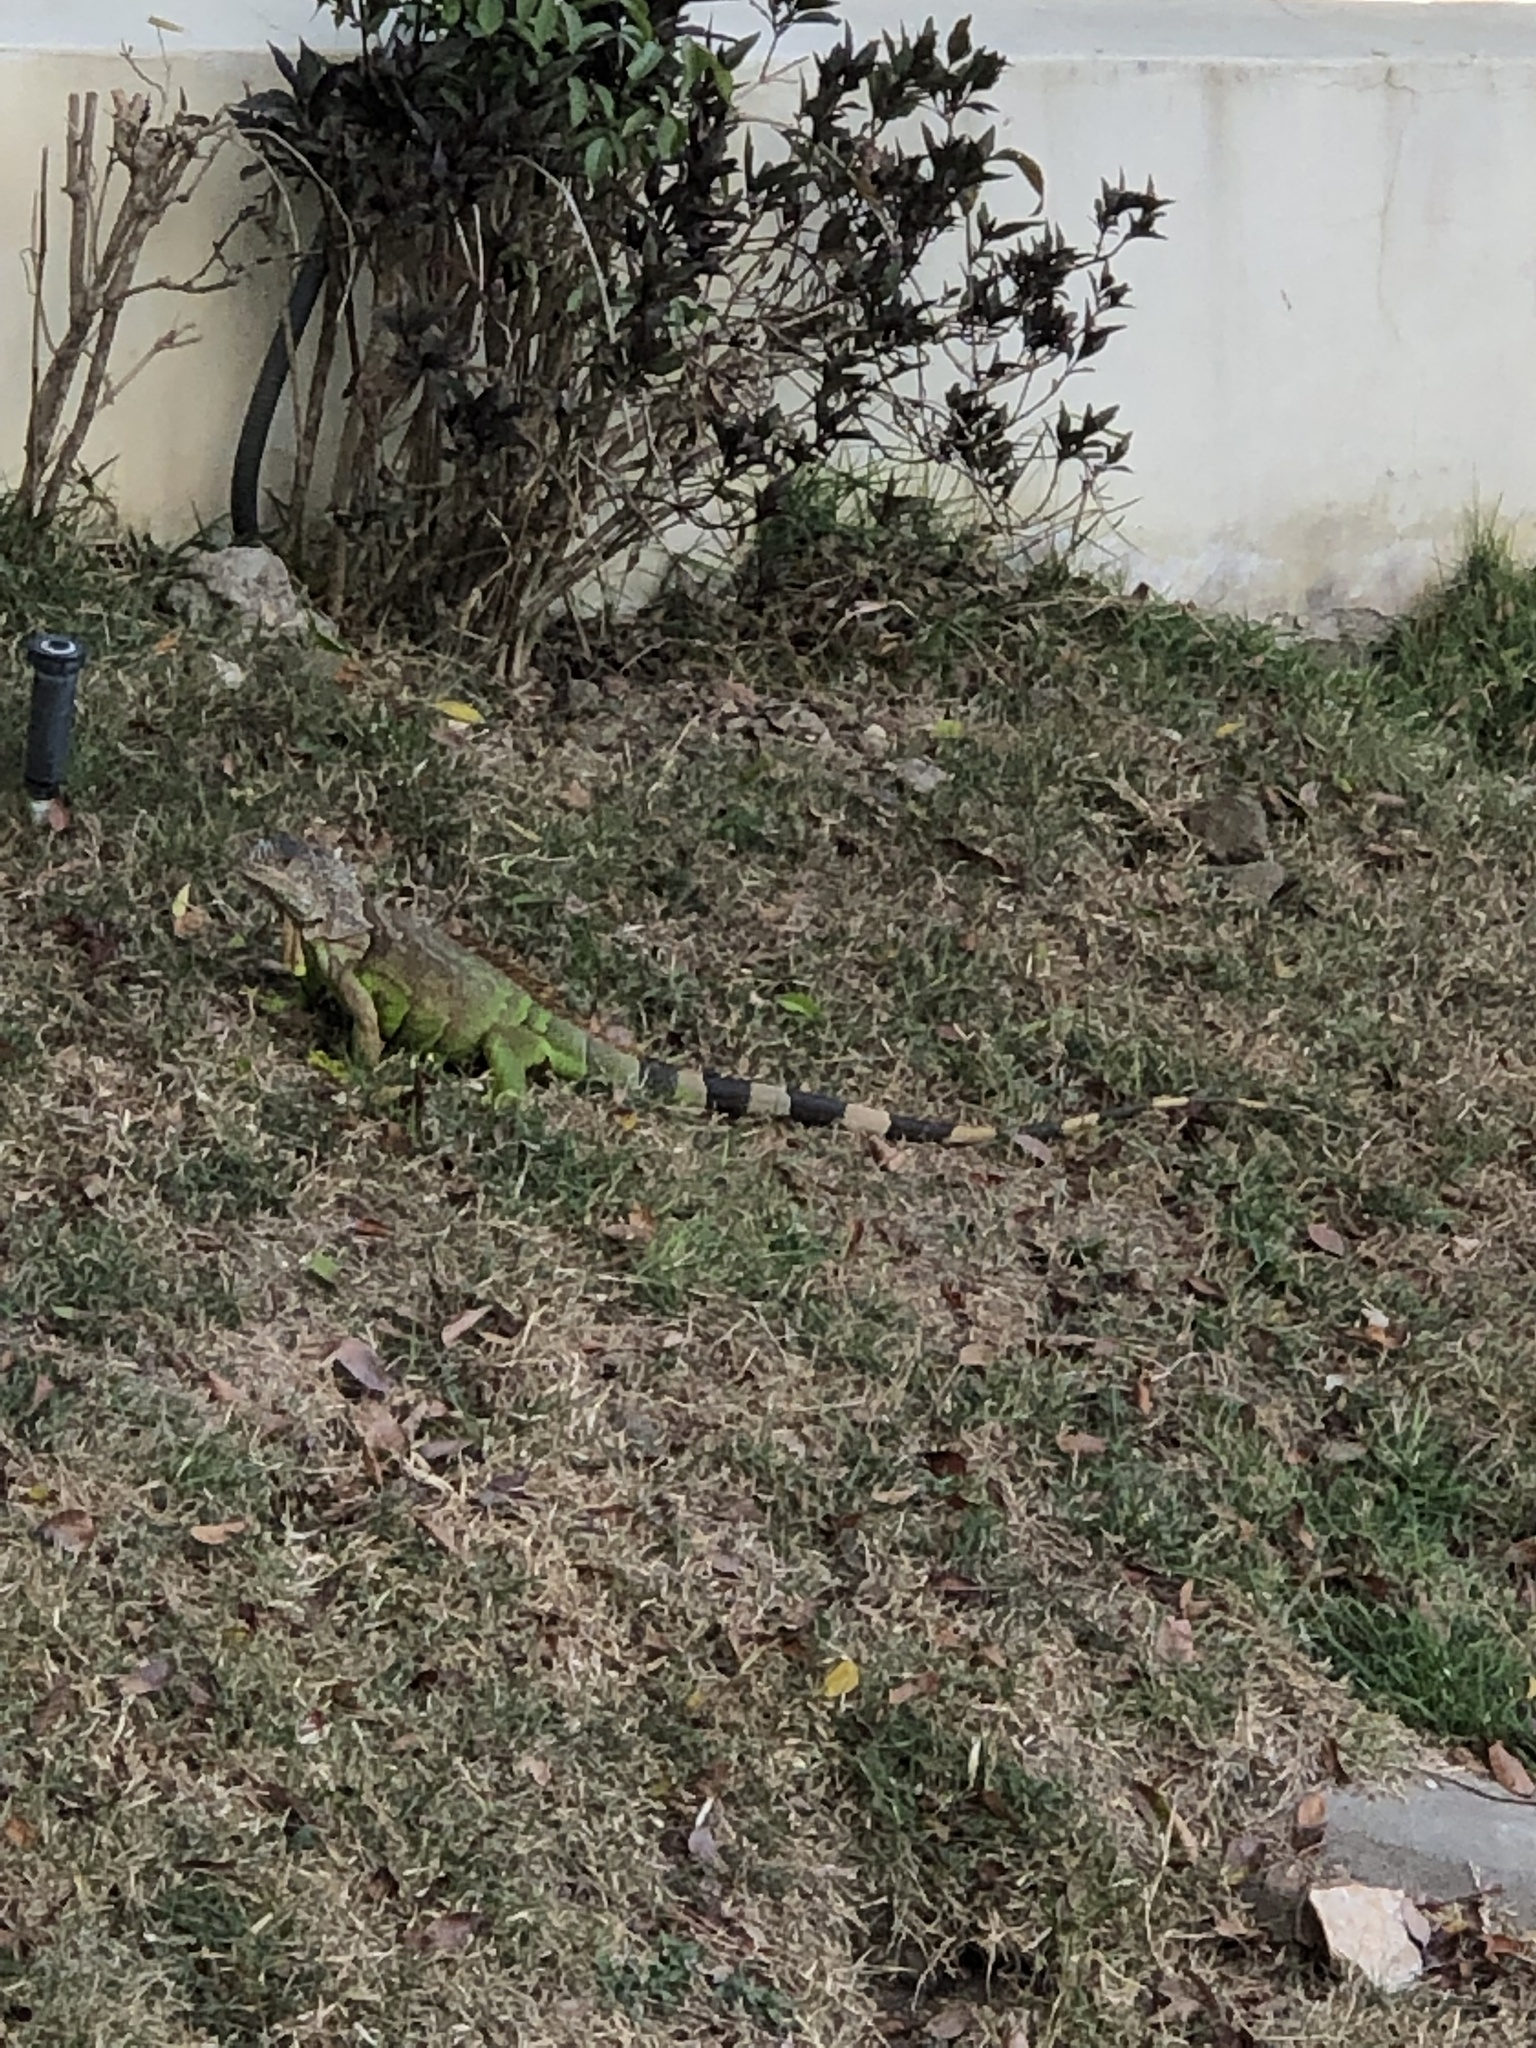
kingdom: Animalia
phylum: Chordata
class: Squamata
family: Iguanidae
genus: Iguana
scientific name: Iguana iguana
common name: Green iguana
